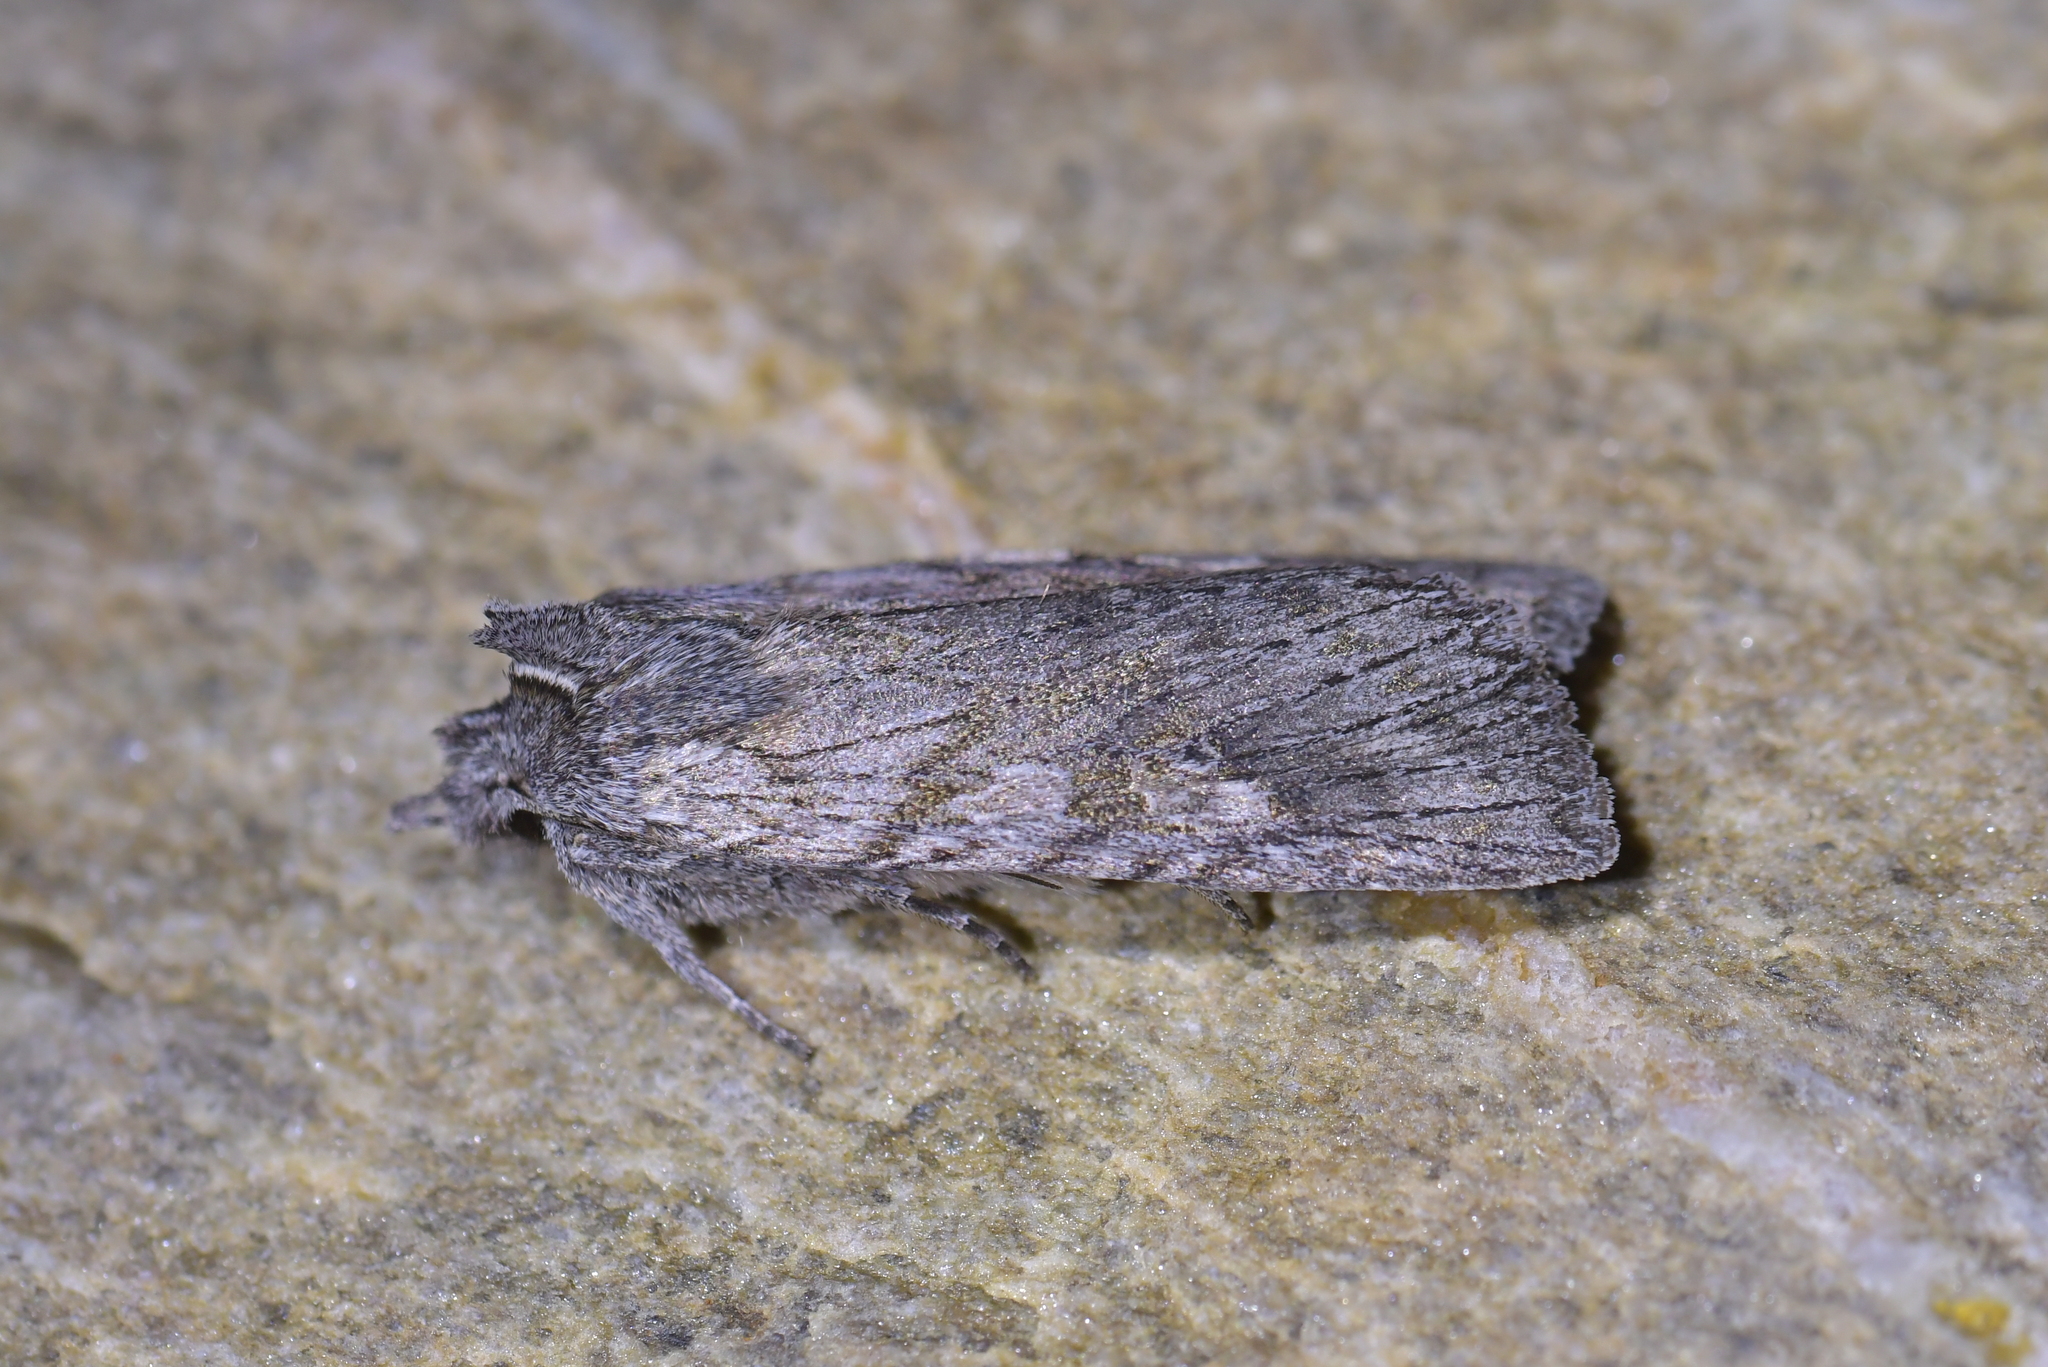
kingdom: Animalia
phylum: Arthropoda
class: Insecta
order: Lepidoptera
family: Noctuidae
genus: Physetica
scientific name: Physetica phricias
